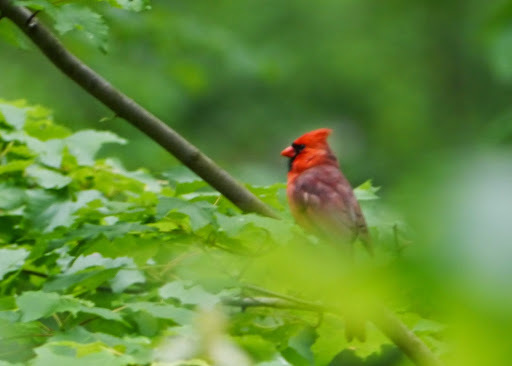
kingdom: Animalia
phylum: Chordata
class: Aves
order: Passeriformes
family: Cardinalidae
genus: Cardinalis
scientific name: Cardinalis cardinalis
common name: Northern cardinal
